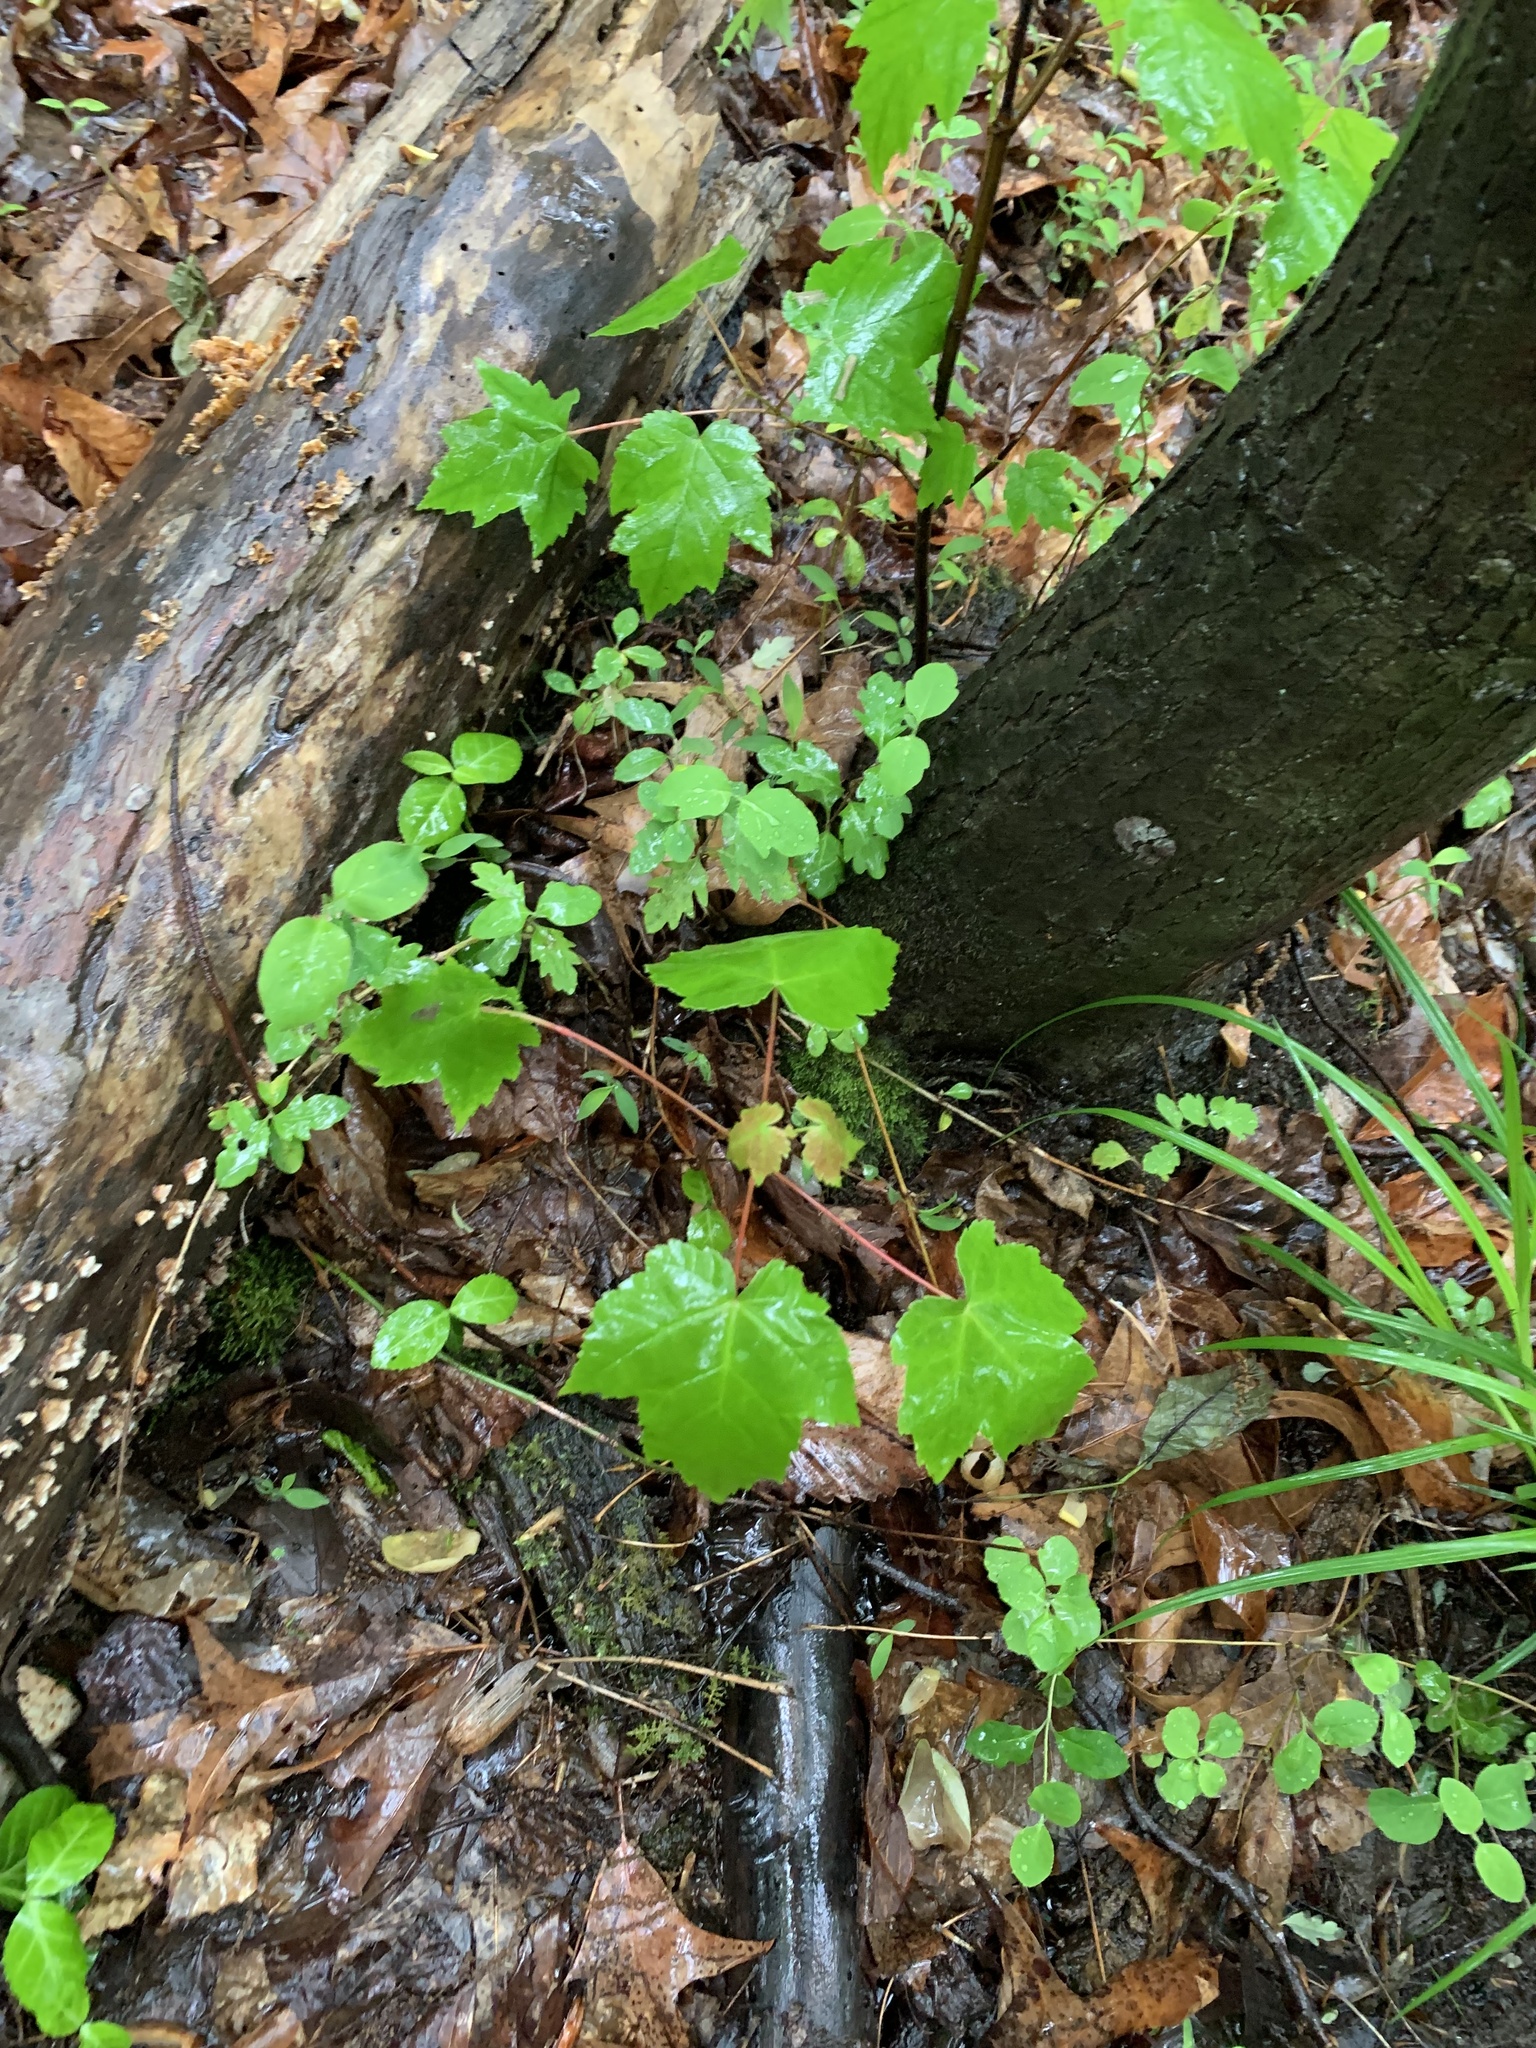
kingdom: Plantae
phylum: Tracheophyta
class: Magnoliopsida
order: Sapindales
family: Sapindaceae
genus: Acer
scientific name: Acer rubrum
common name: Red maple
